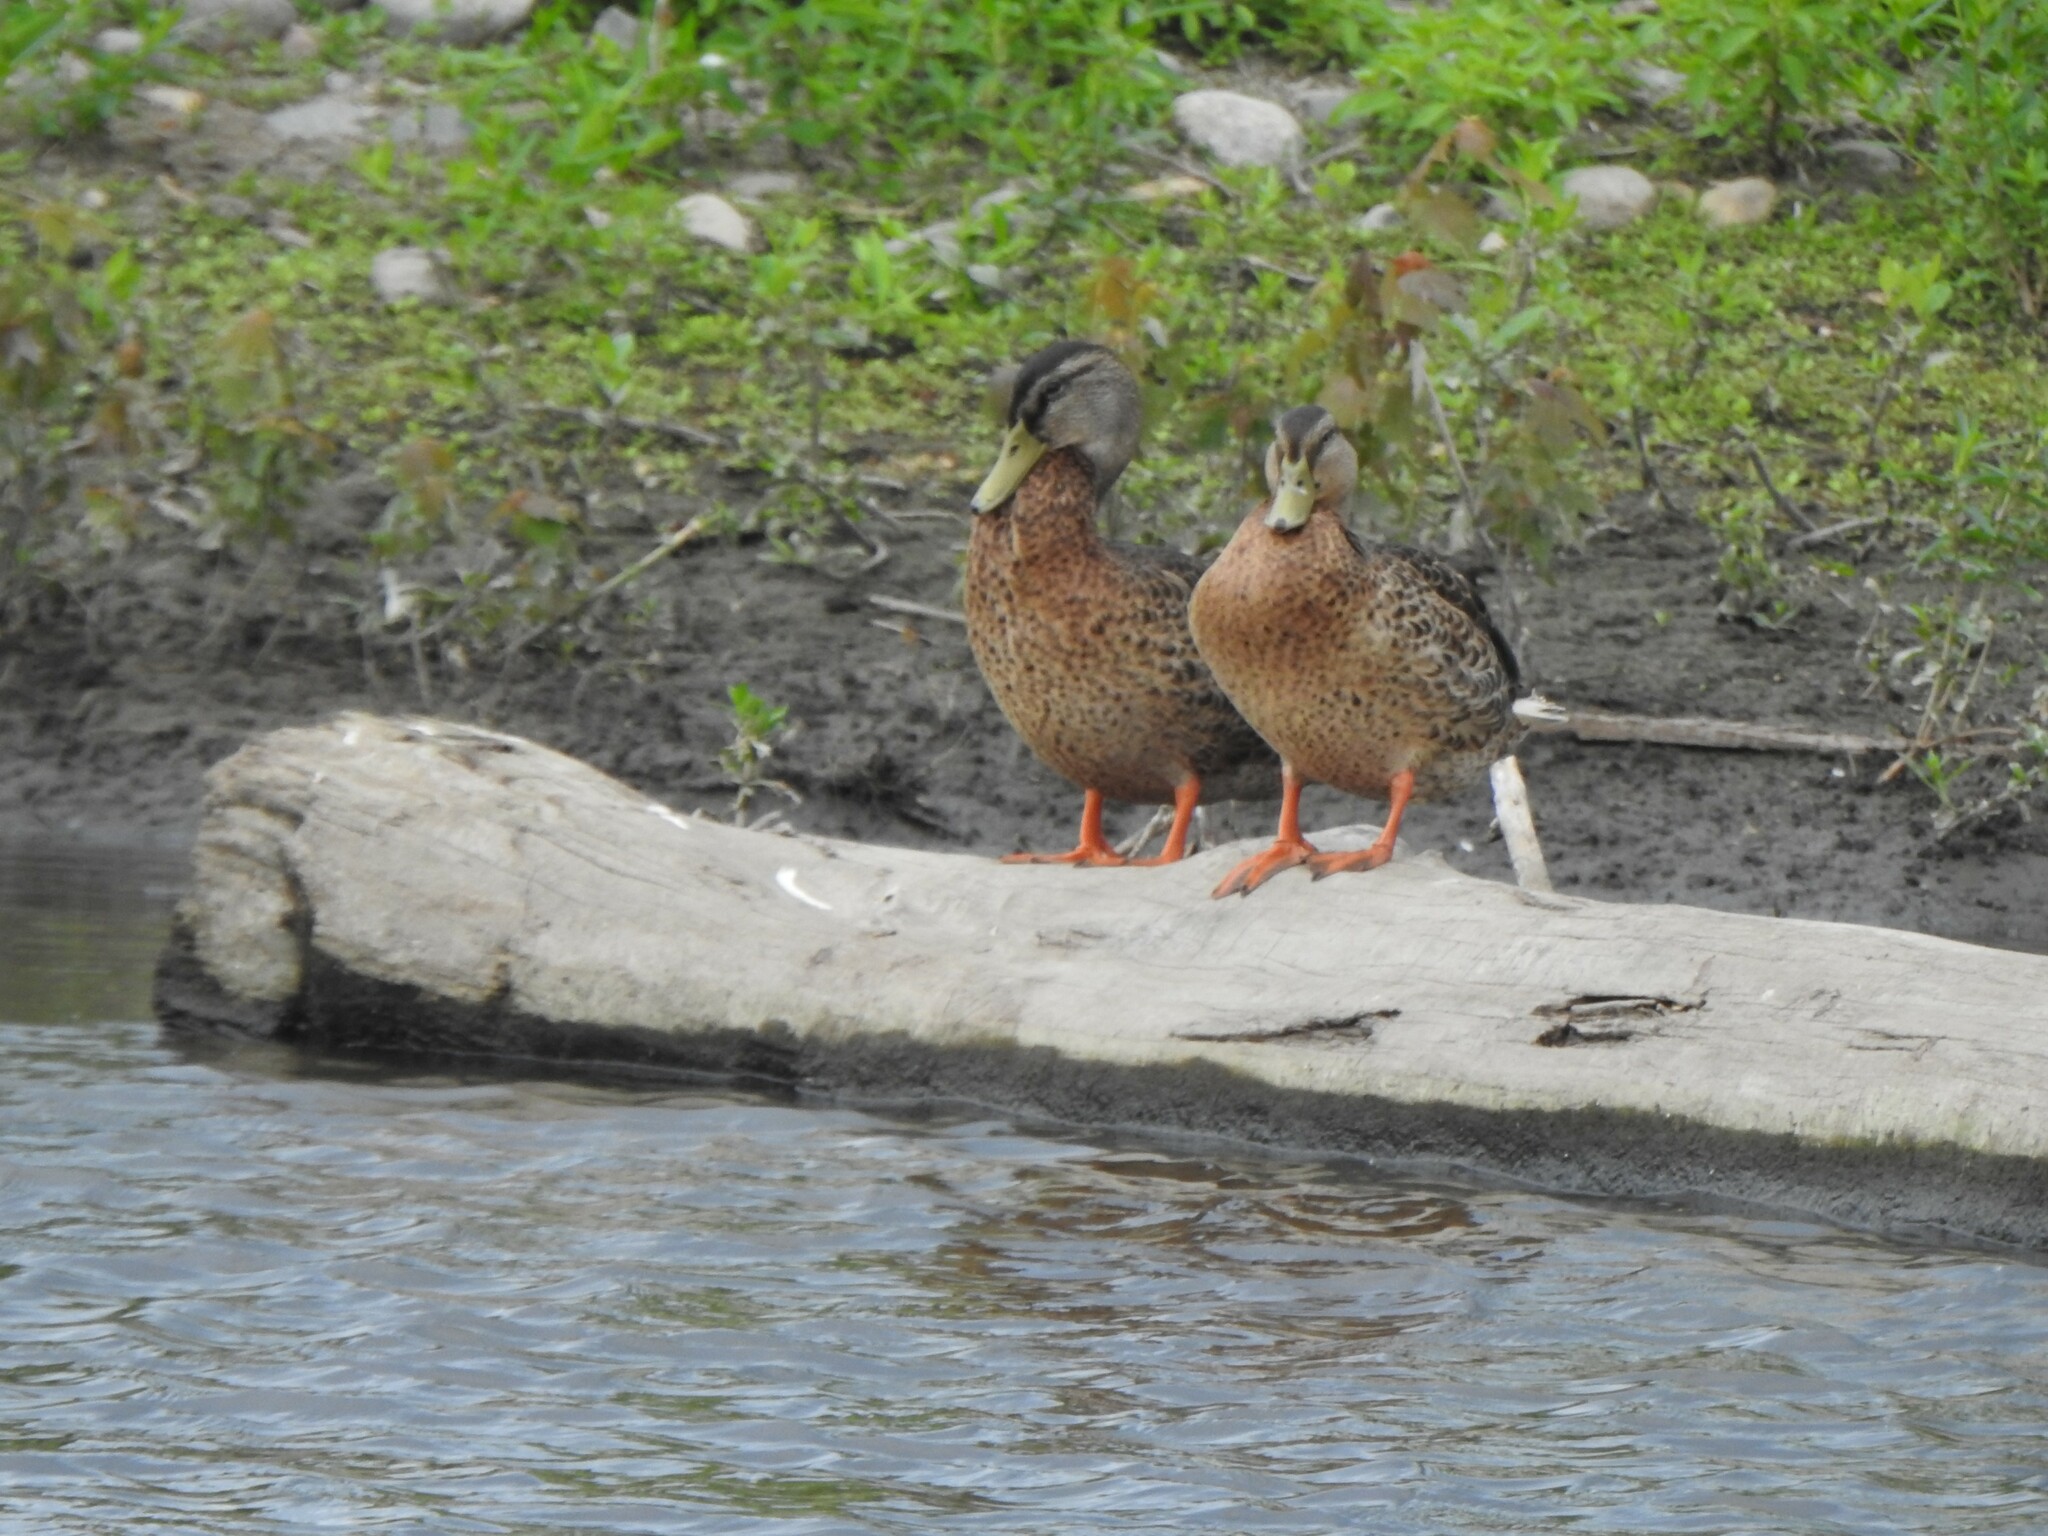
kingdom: Animalia
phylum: Chordata
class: Aves
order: Anseriformes
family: Anatidae
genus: Anas
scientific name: Anas platyrhynchos
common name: Mallard
